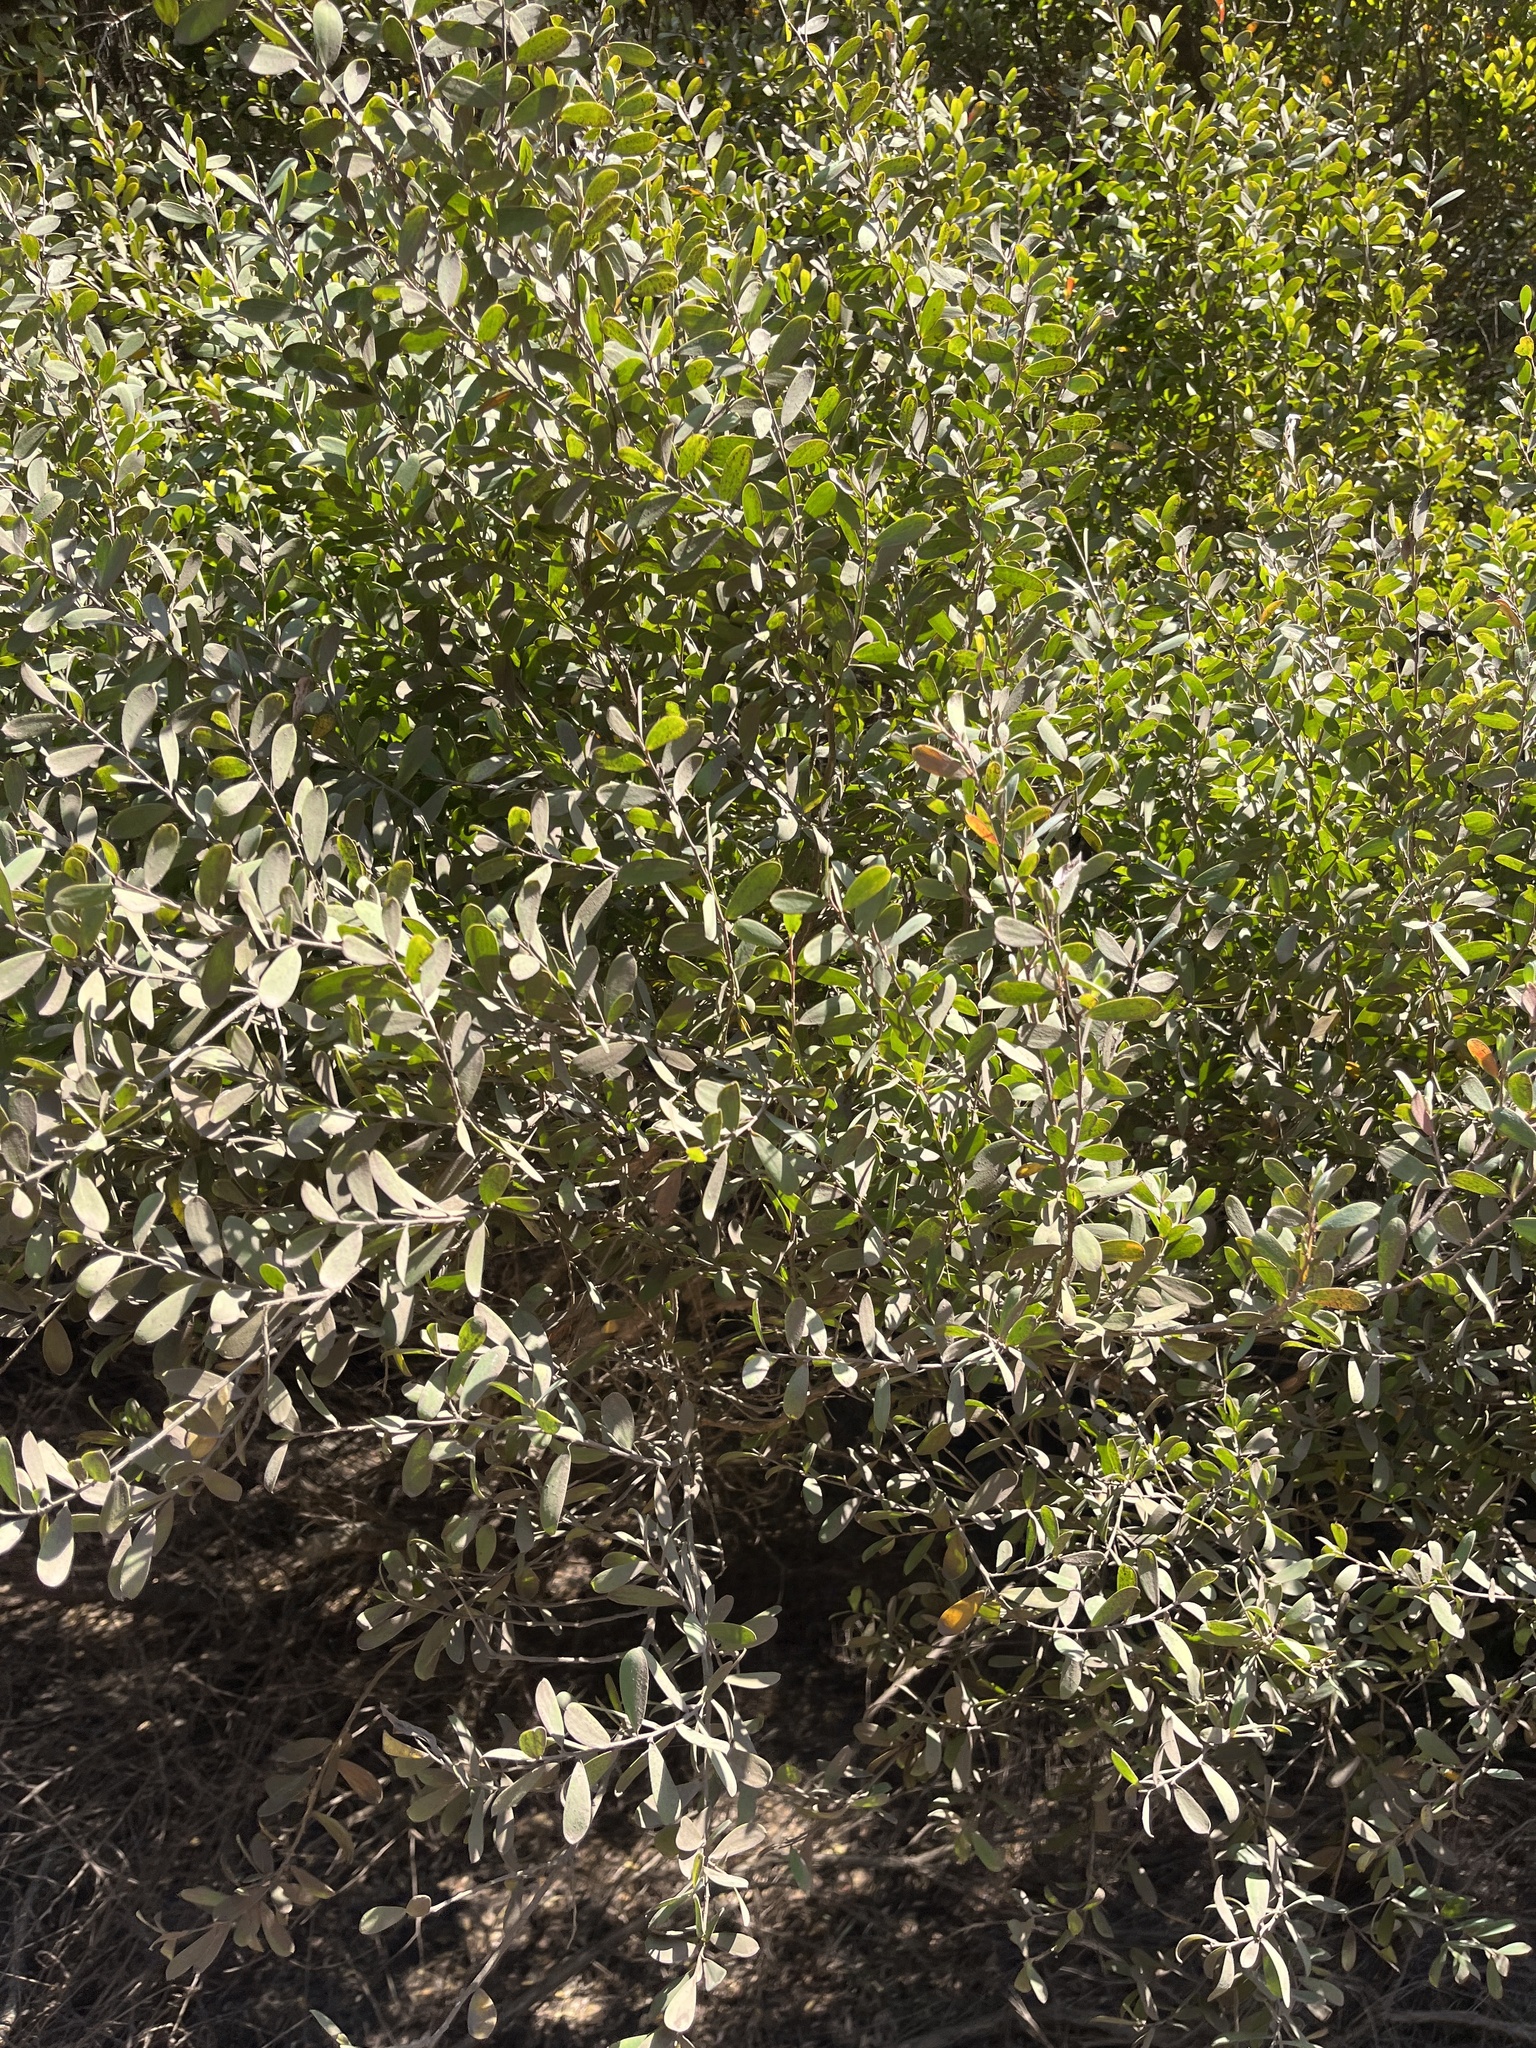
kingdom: Plantae
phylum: Tracheophyta
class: Magnoliopsida
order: Myrtales
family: Myrtaceae
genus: Leptospermum
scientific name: Leptospermum laevigatum
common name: Australian teatree
